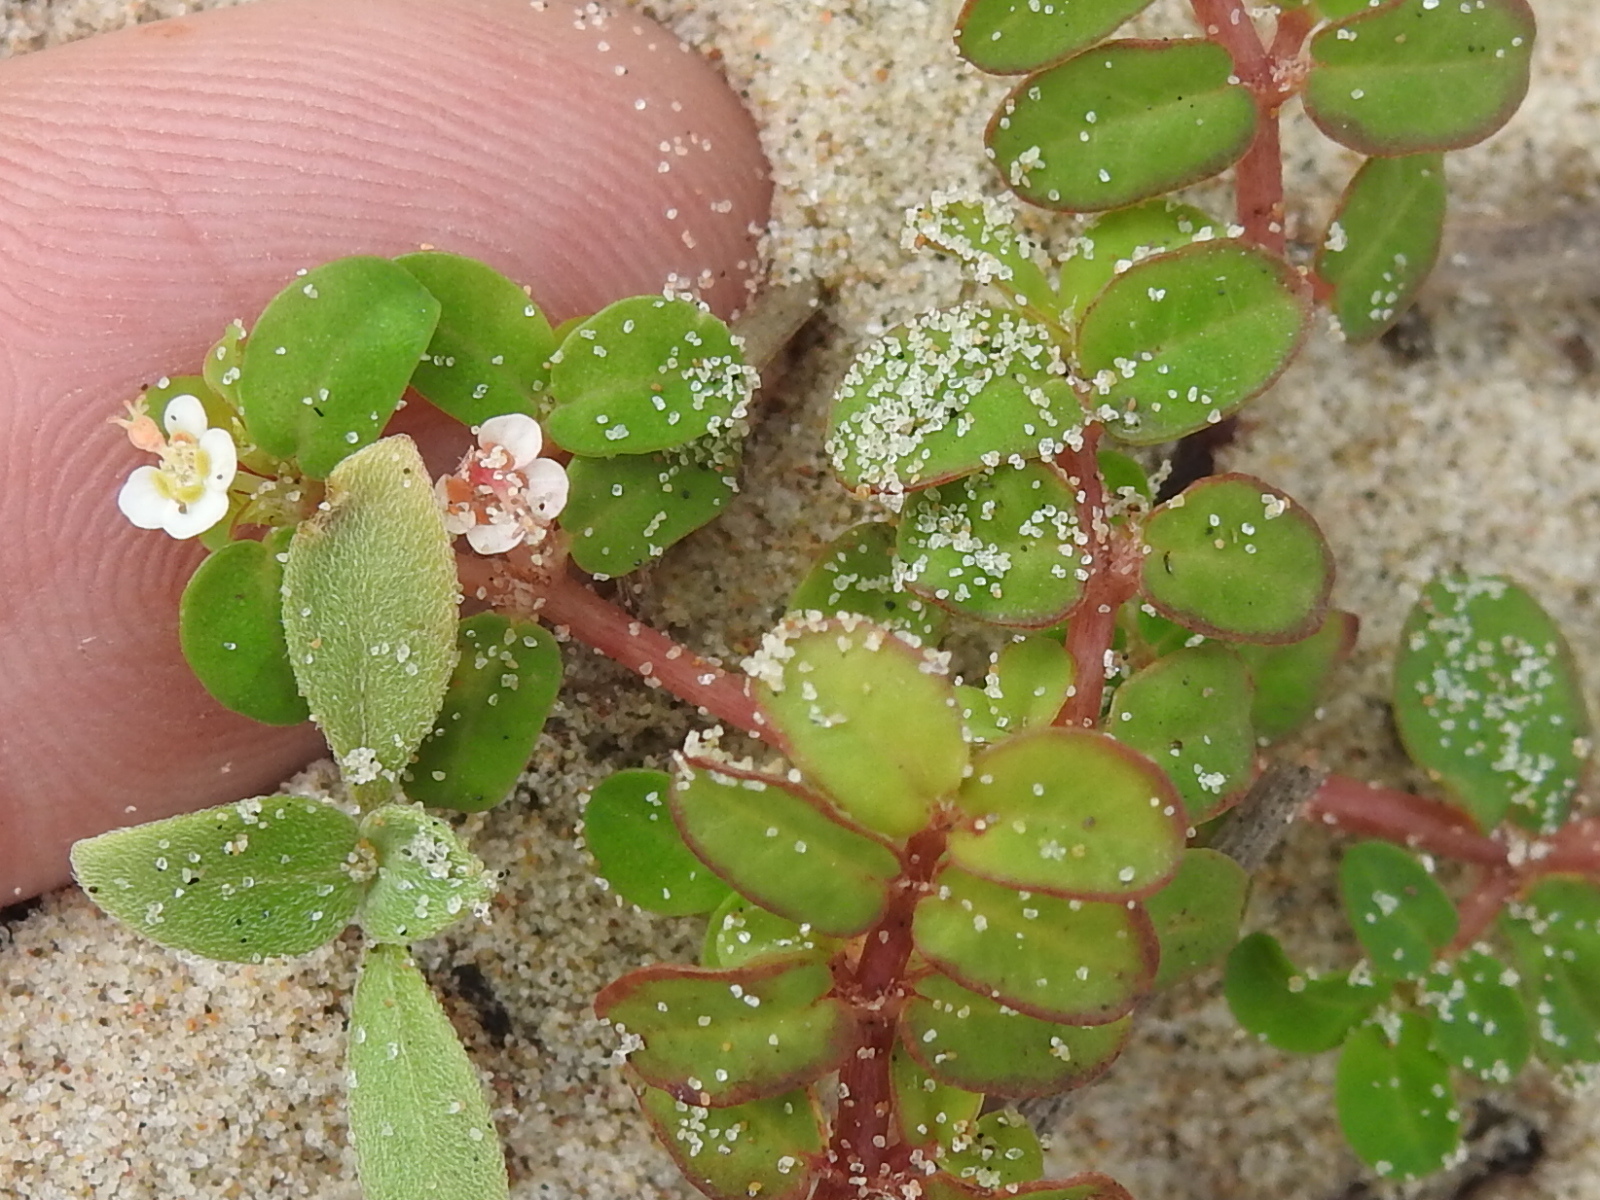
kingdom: Plantae
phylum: Tracheophyta
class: Magnoliopsida
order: Malpighiales
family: Euphorbiaceae
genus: Euphorbia
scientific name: Euphorbia cordifolia
